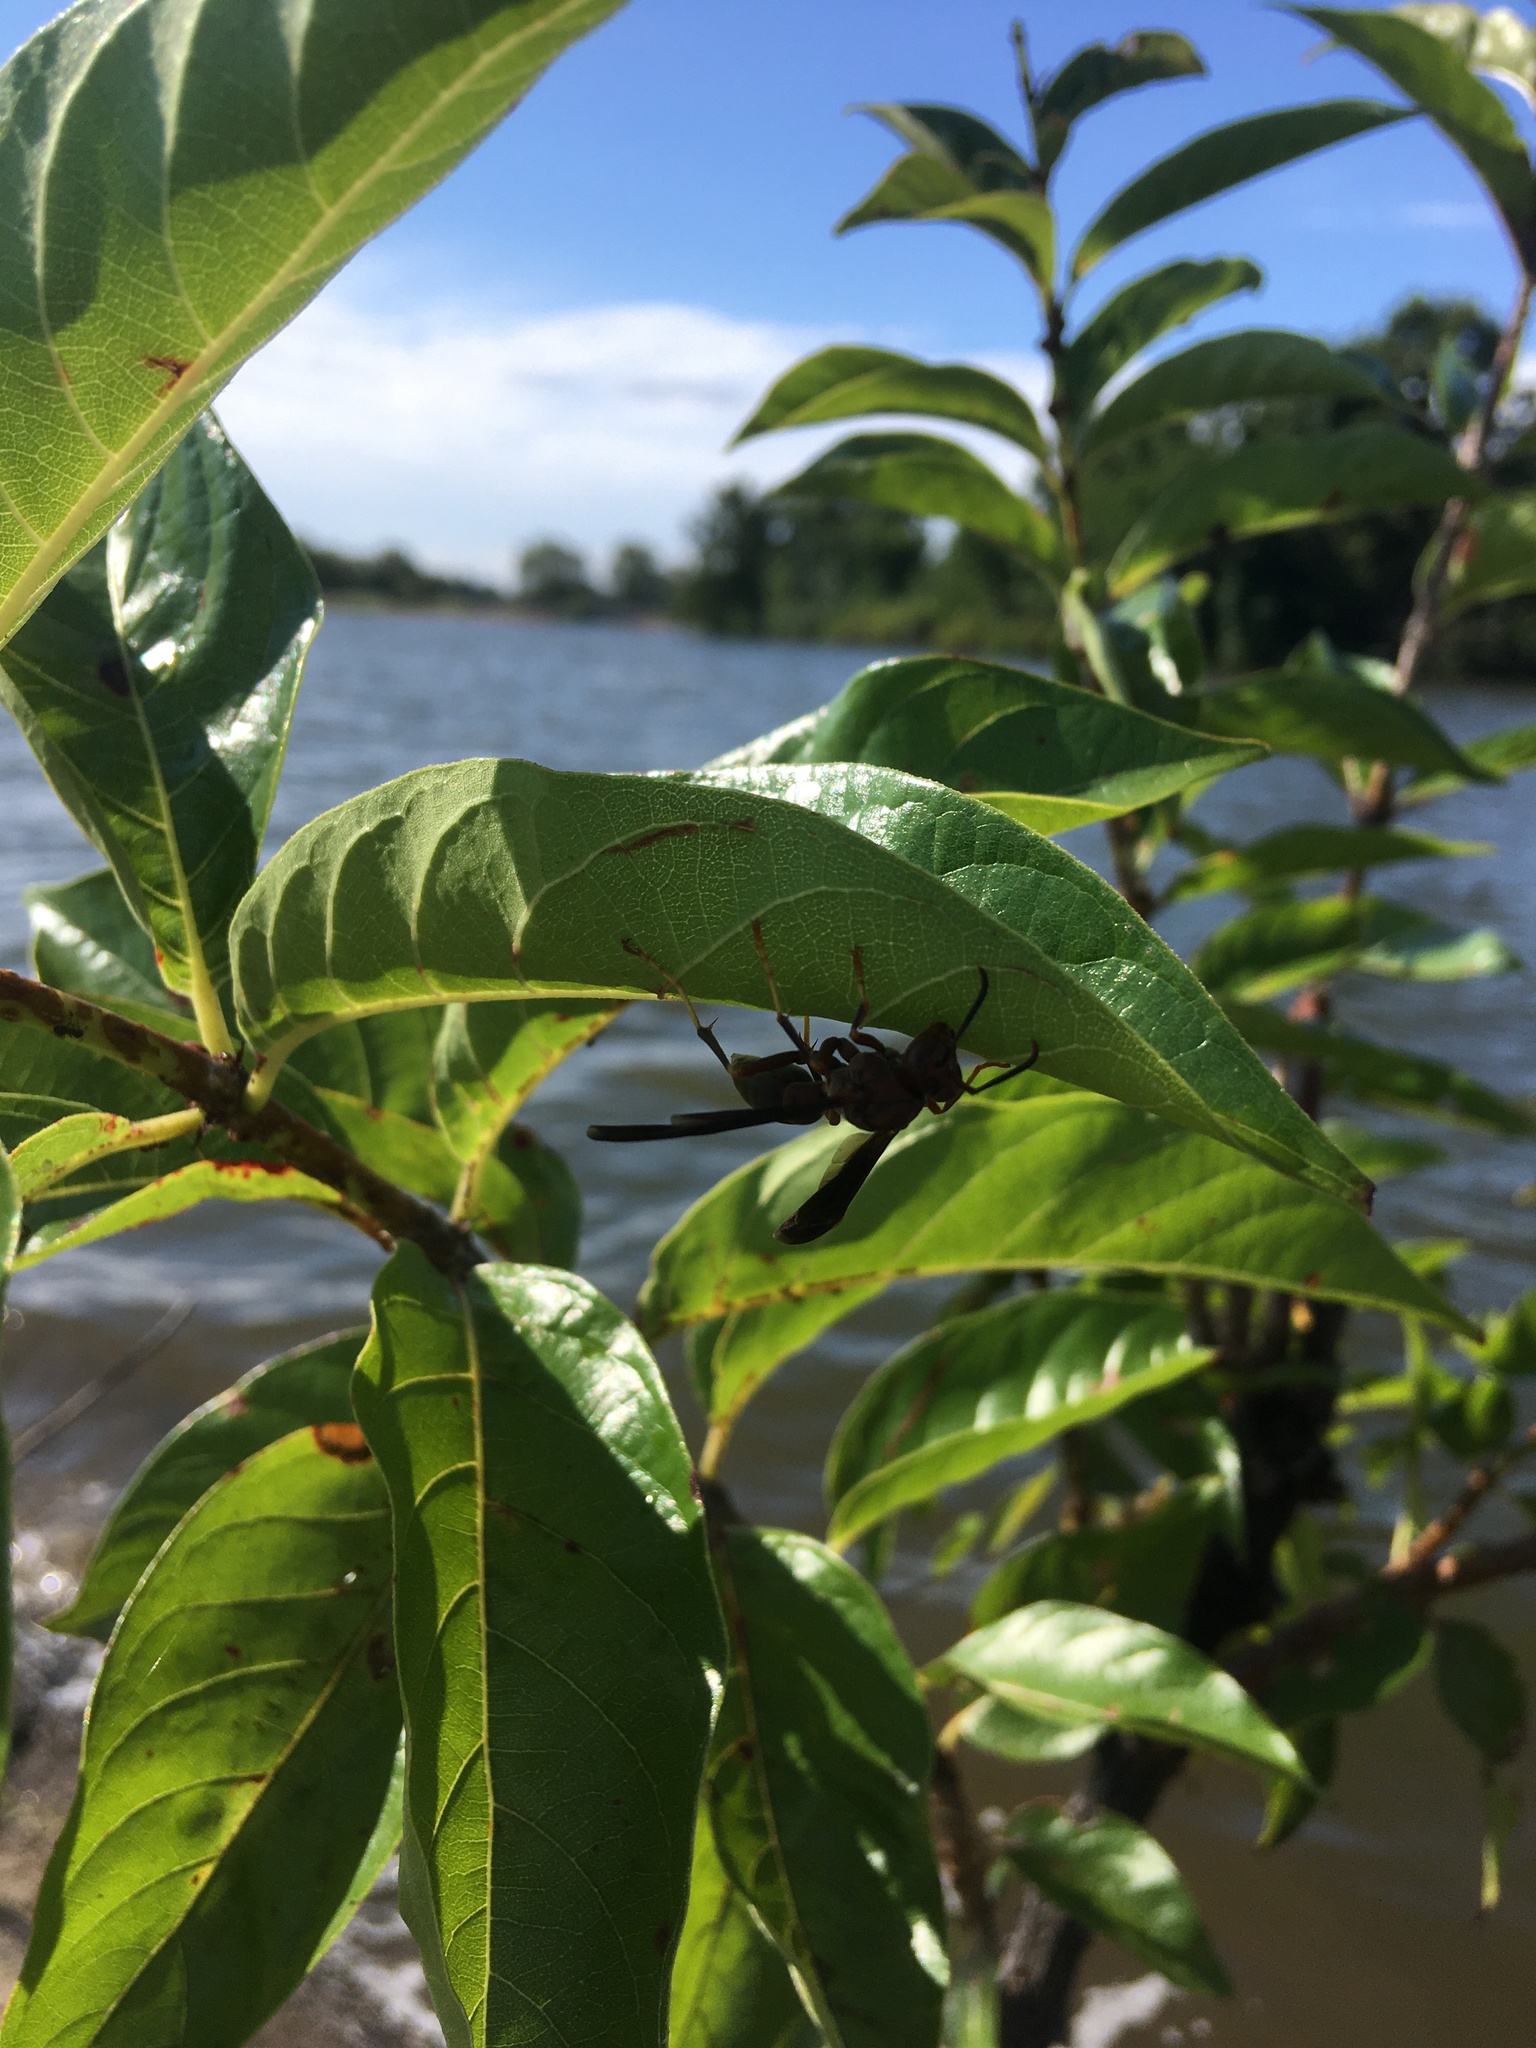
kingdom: Animalia
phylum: Arthropoda
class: Insecta
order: Hymenoptera
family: Eumenidae
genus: Polistes
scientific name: Polistes metricus
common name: Metric paper wasp
